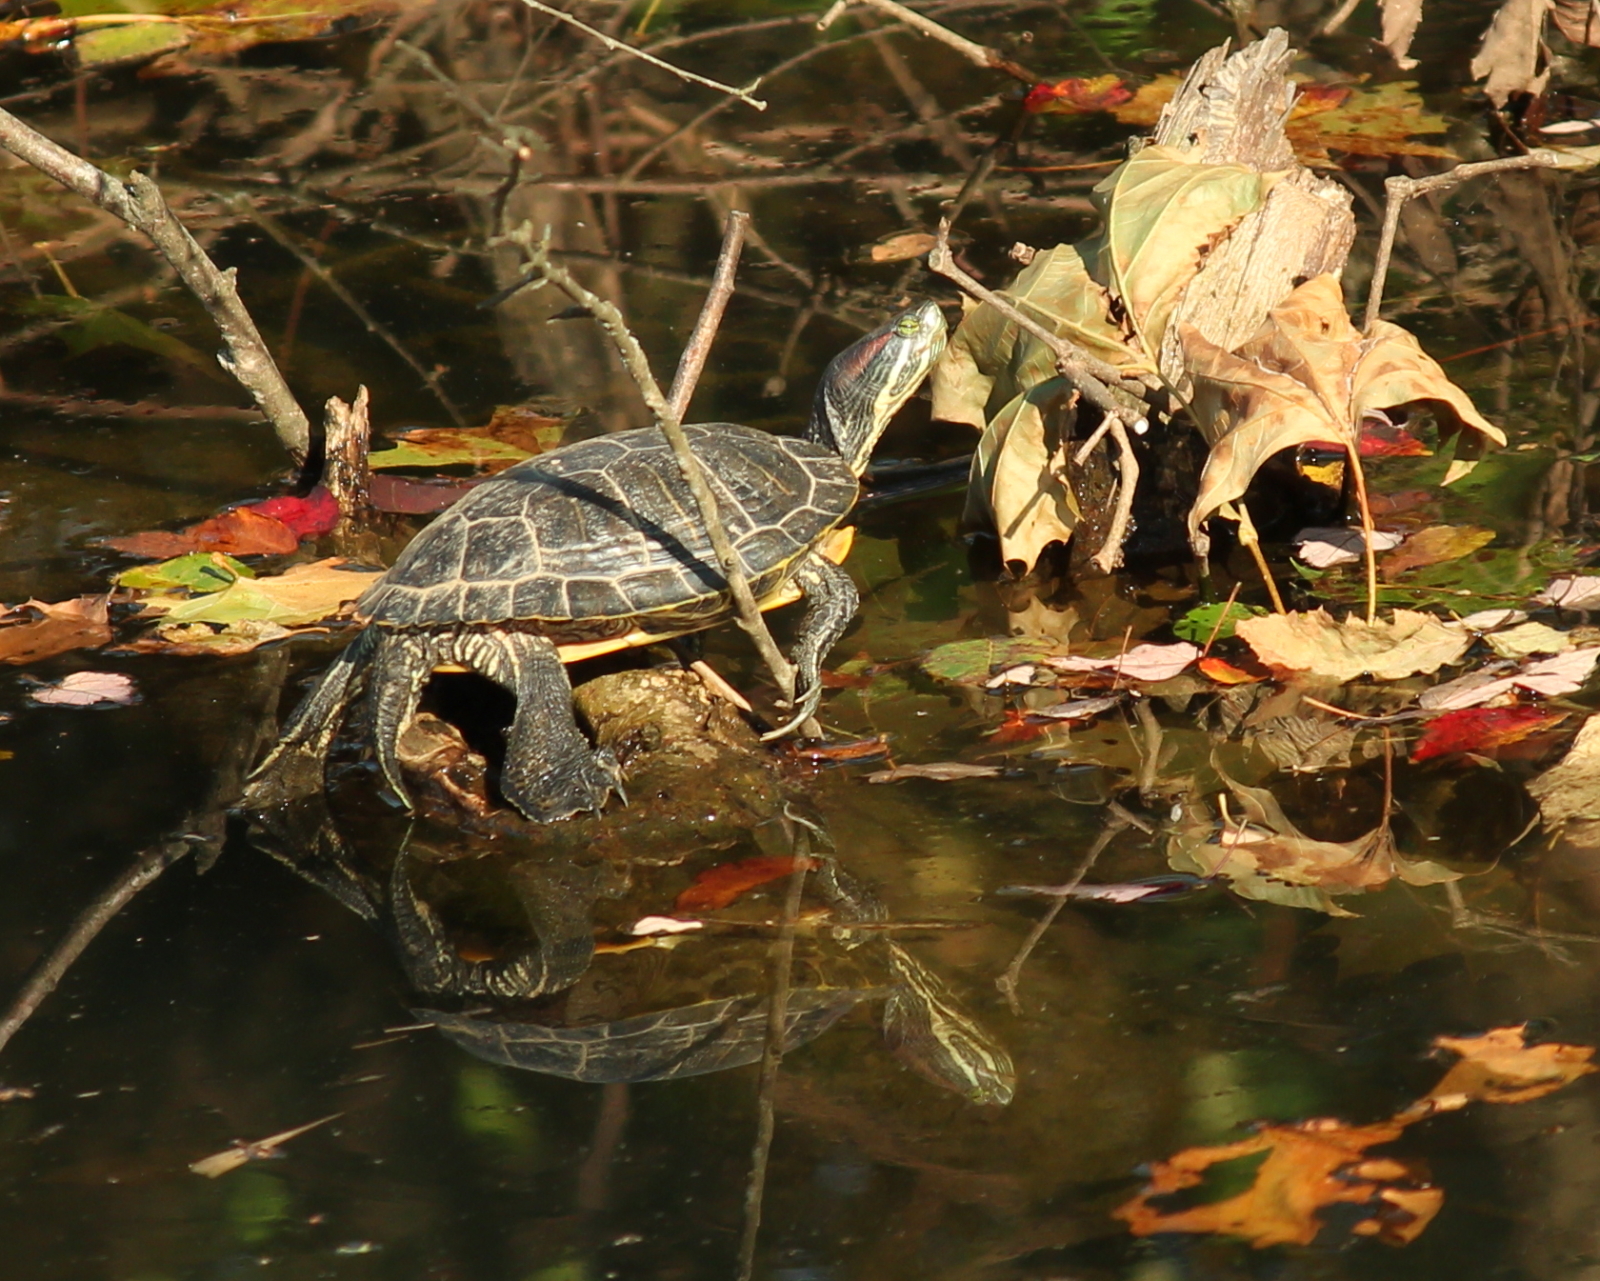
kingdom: Animalia
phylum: Chordata
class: Testudines
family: Emydidae
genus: Trachemys
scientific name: Trachemys scripta
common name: Slider
